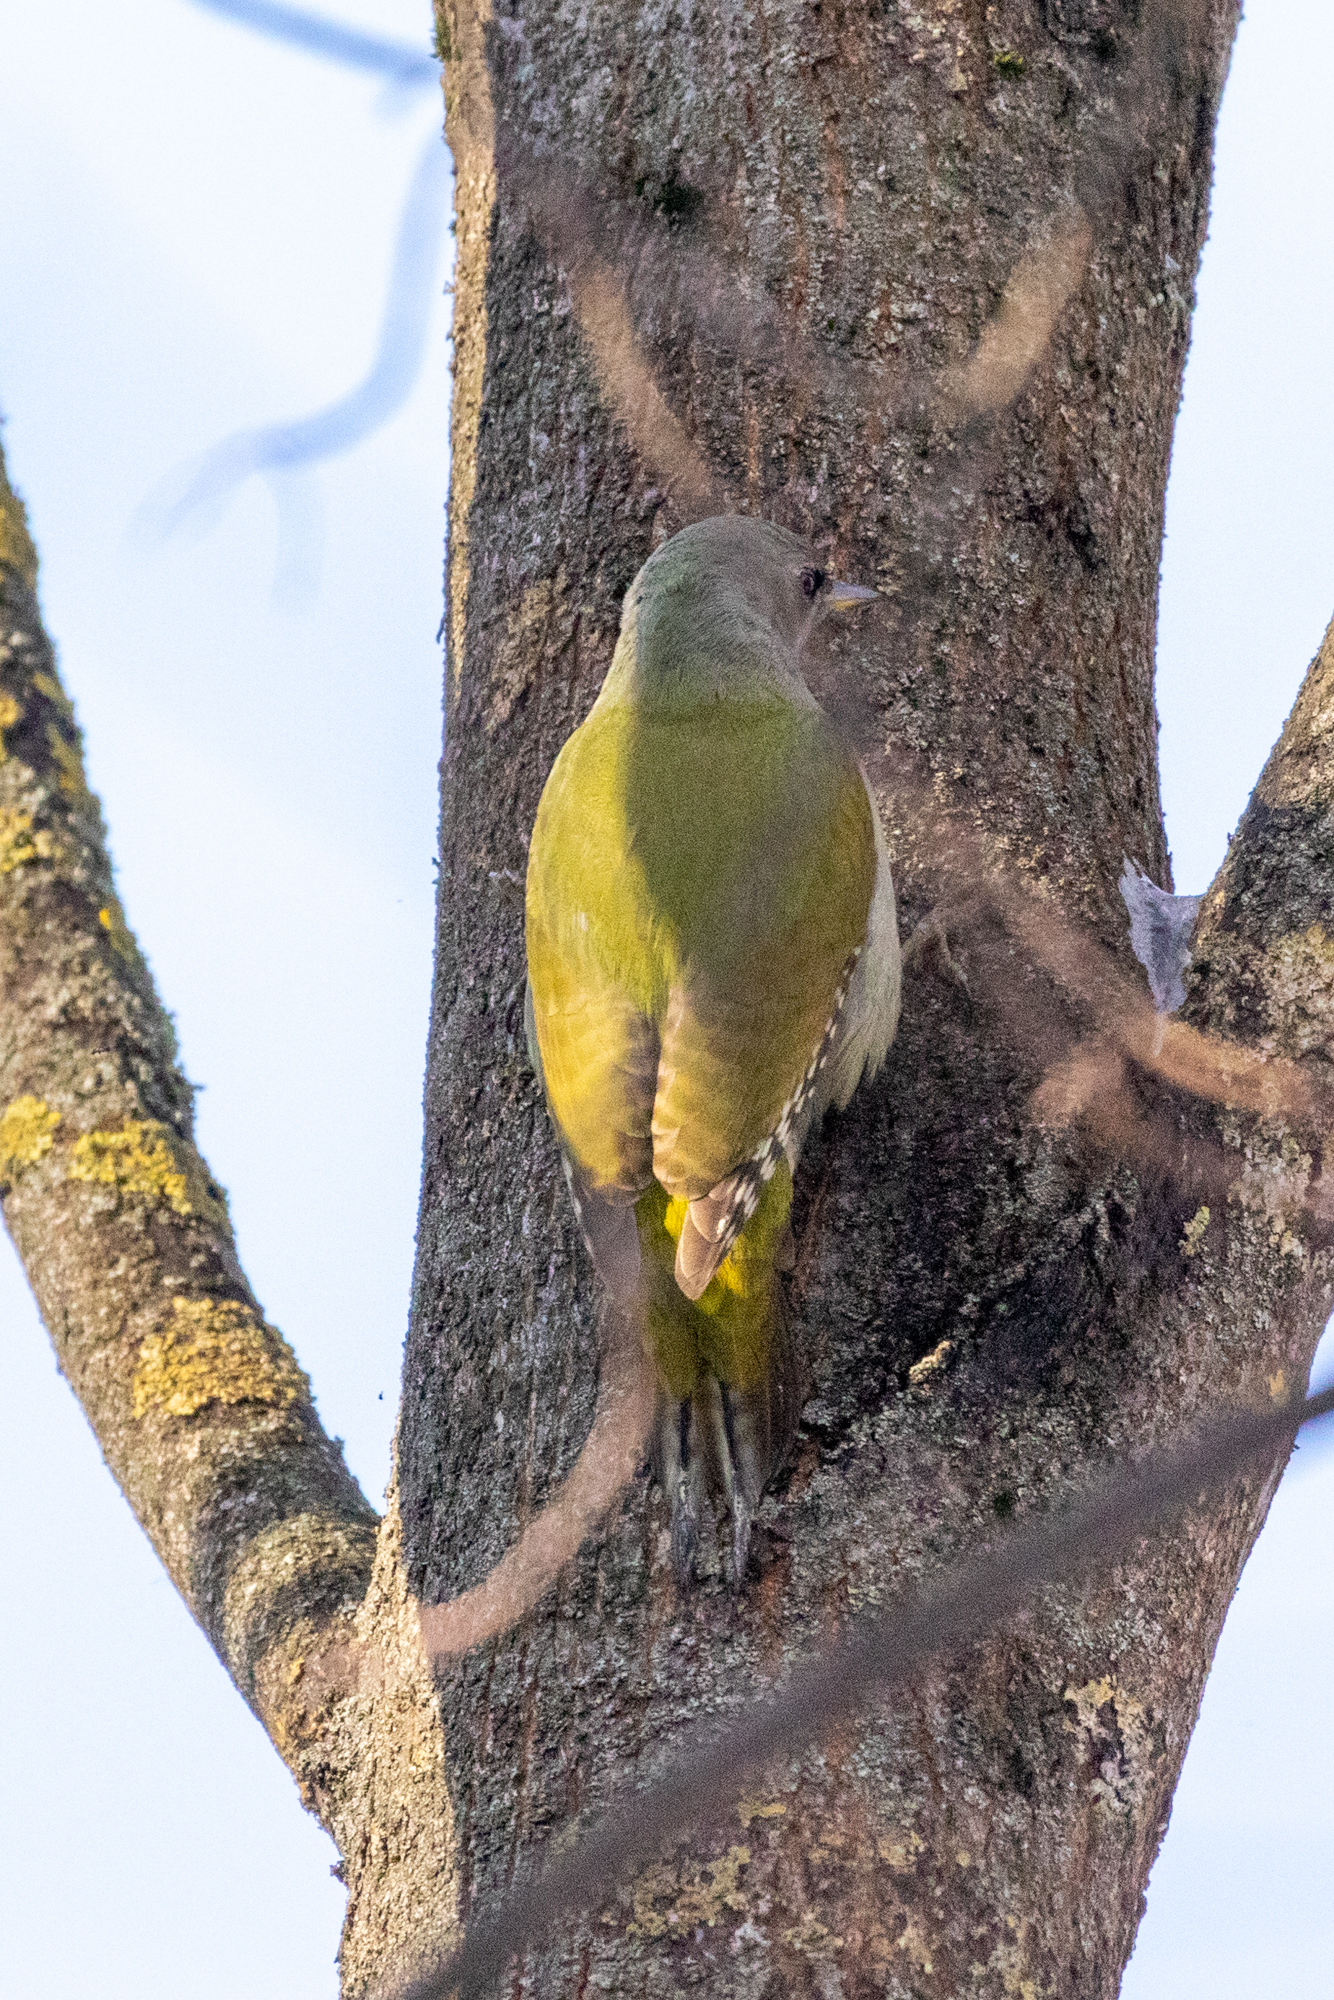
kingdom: Animalia
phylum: Chordata
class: Aves
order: Piciformes
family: Picidae
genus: Picus
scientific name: Picus canus
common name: Grey-headed woodpecker
